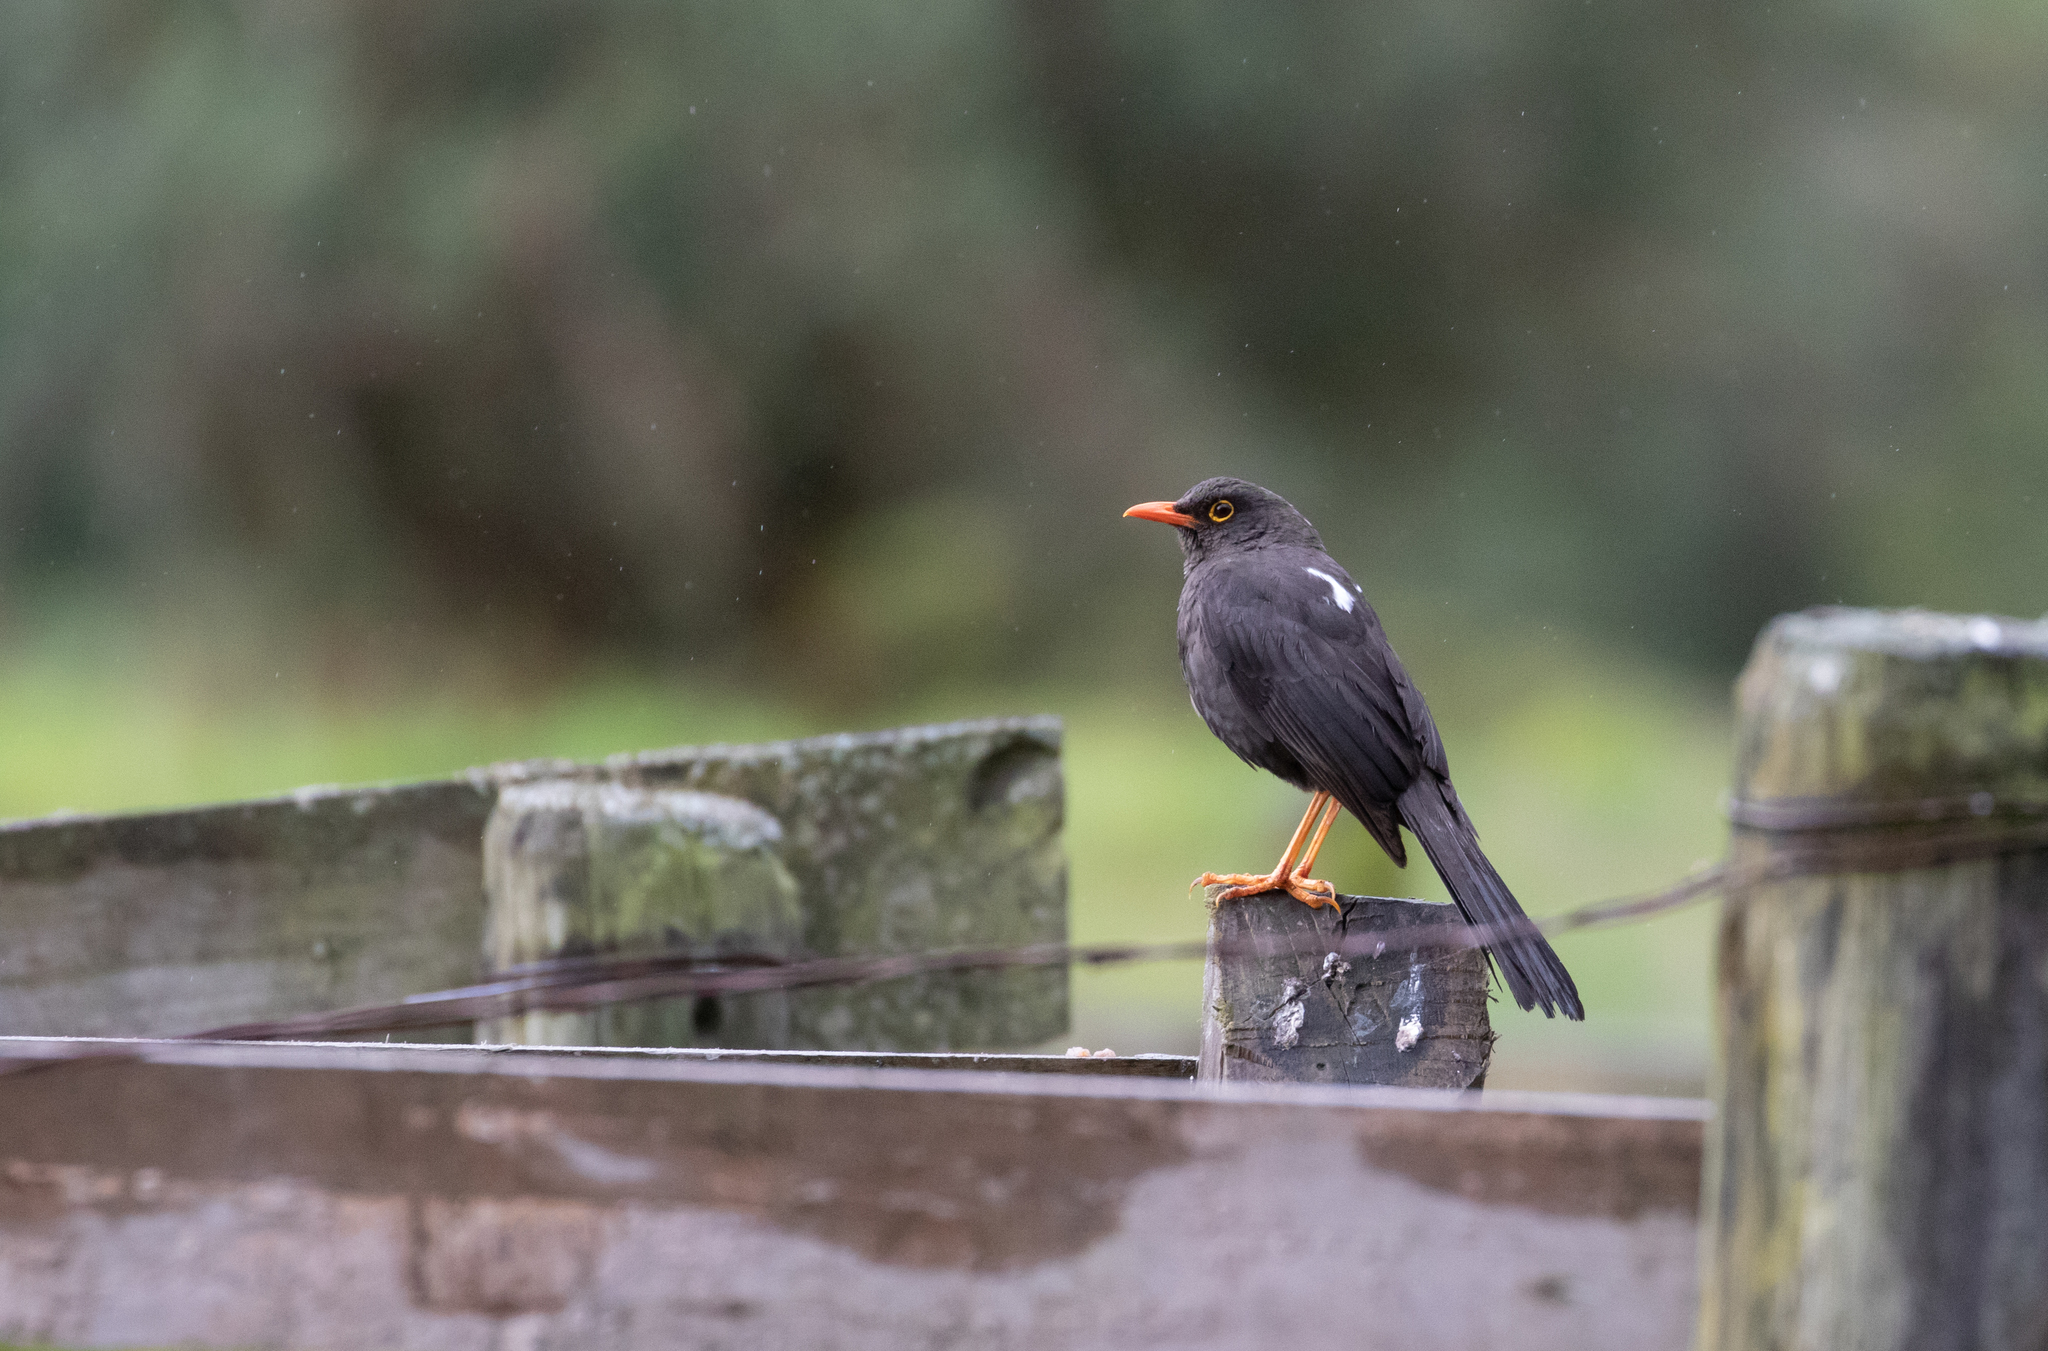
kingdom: Animalia
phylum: Chordata
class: Aves
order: Passeriformes
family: Turdidae
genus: Turdus
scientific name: Turdus fuscater
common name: Great thrush
